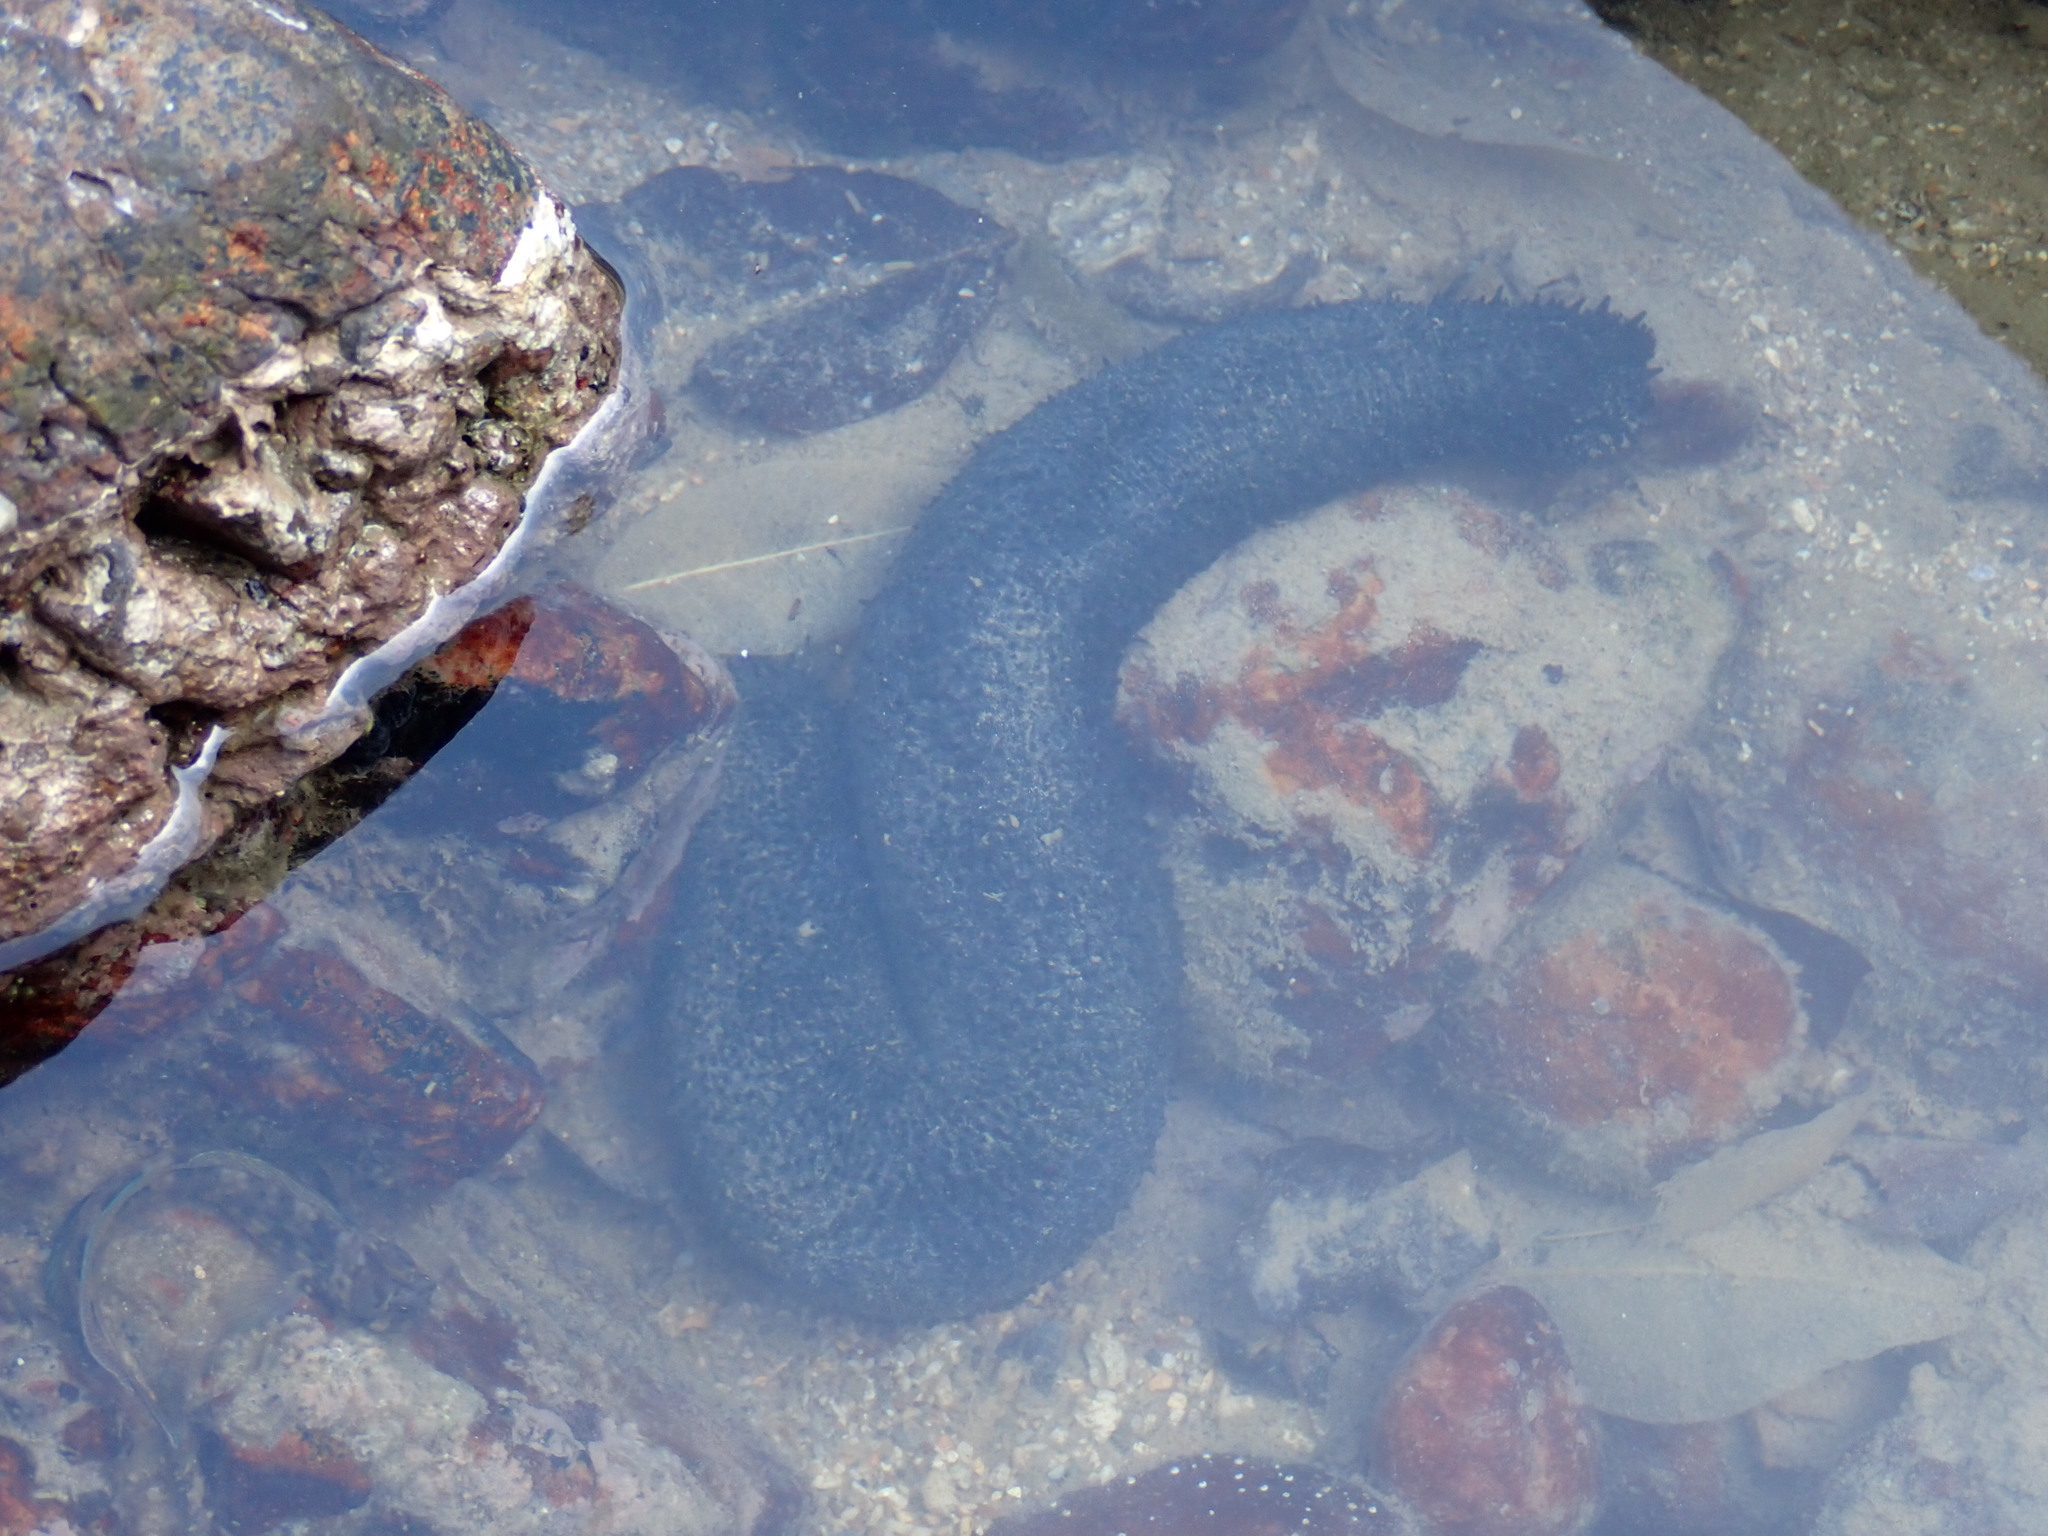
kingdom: Animalia
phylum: Echinodermata
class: Holothuroidea
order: Holothuriida
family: Holothuriidae
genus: Holothuria
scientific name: Holothuria leucospilota
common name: White thread fish
